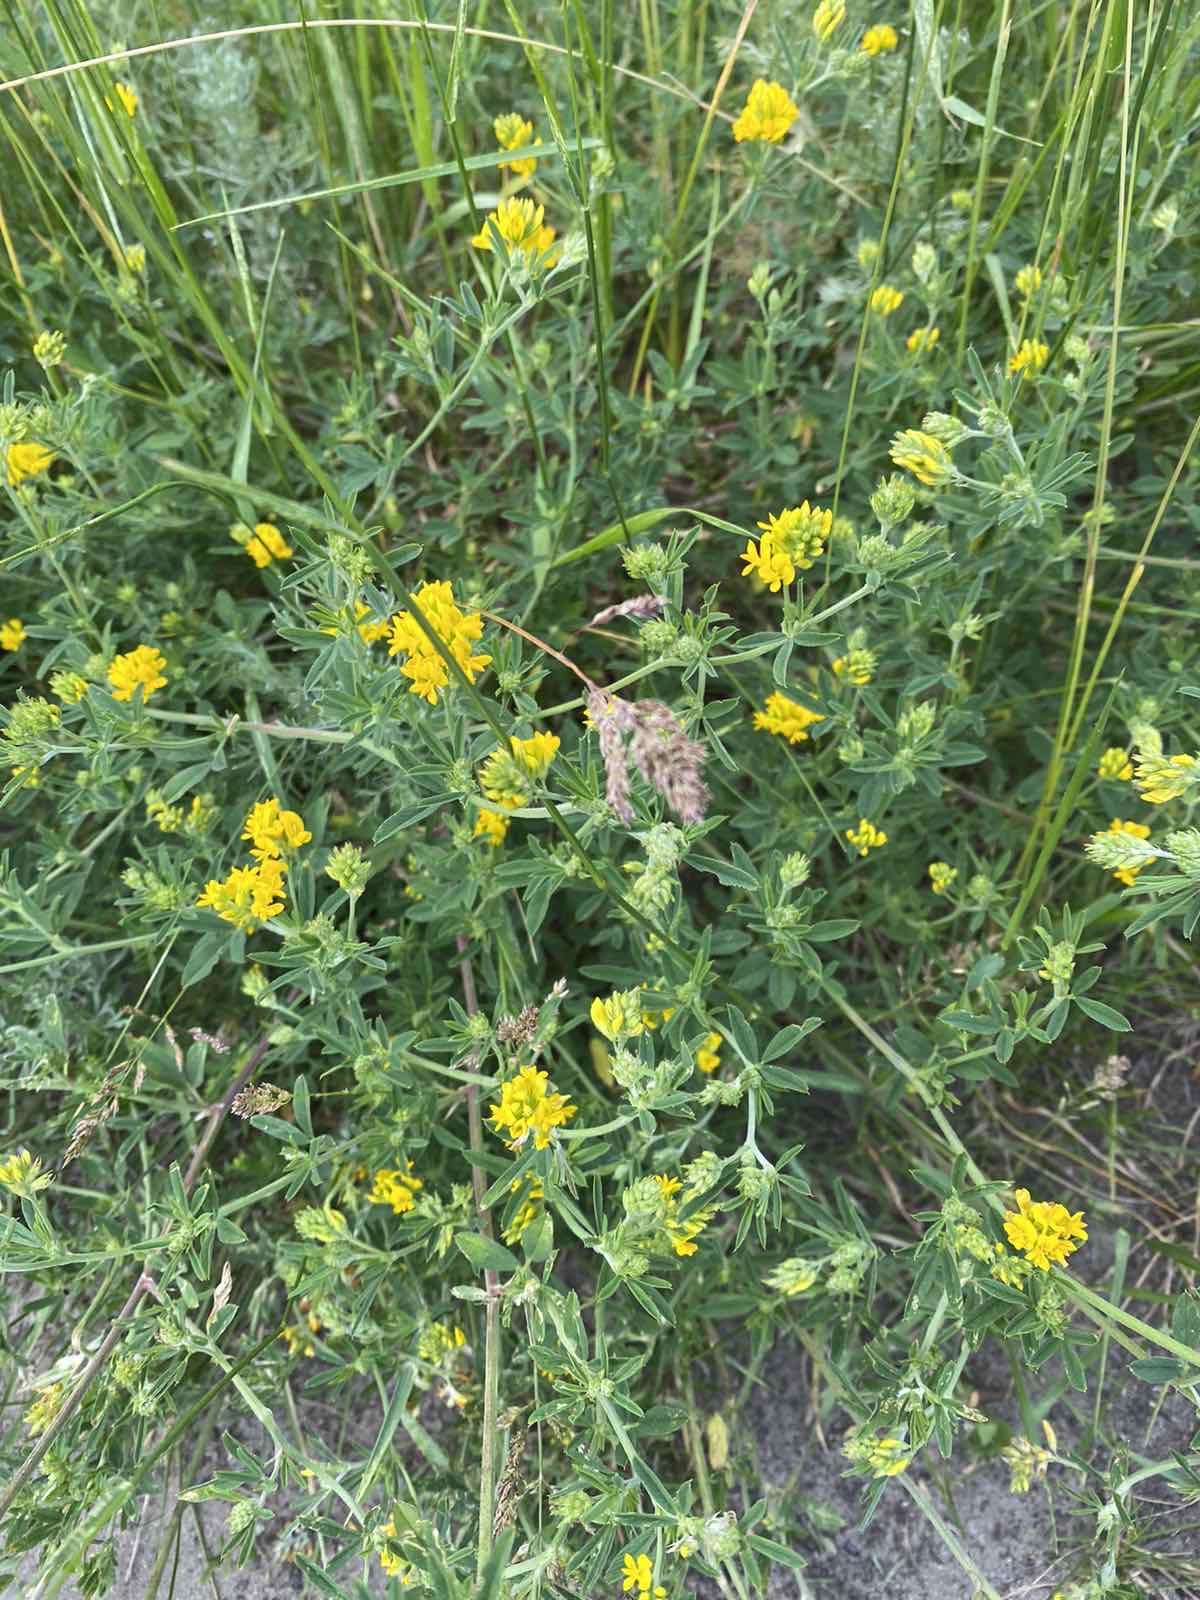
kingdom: Plantae
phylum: Tracheophyta
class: Magnoliopsida
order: Fabales
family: Fabaceae
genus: Medicago
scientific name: Medicago falcata
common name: Sickle medick
